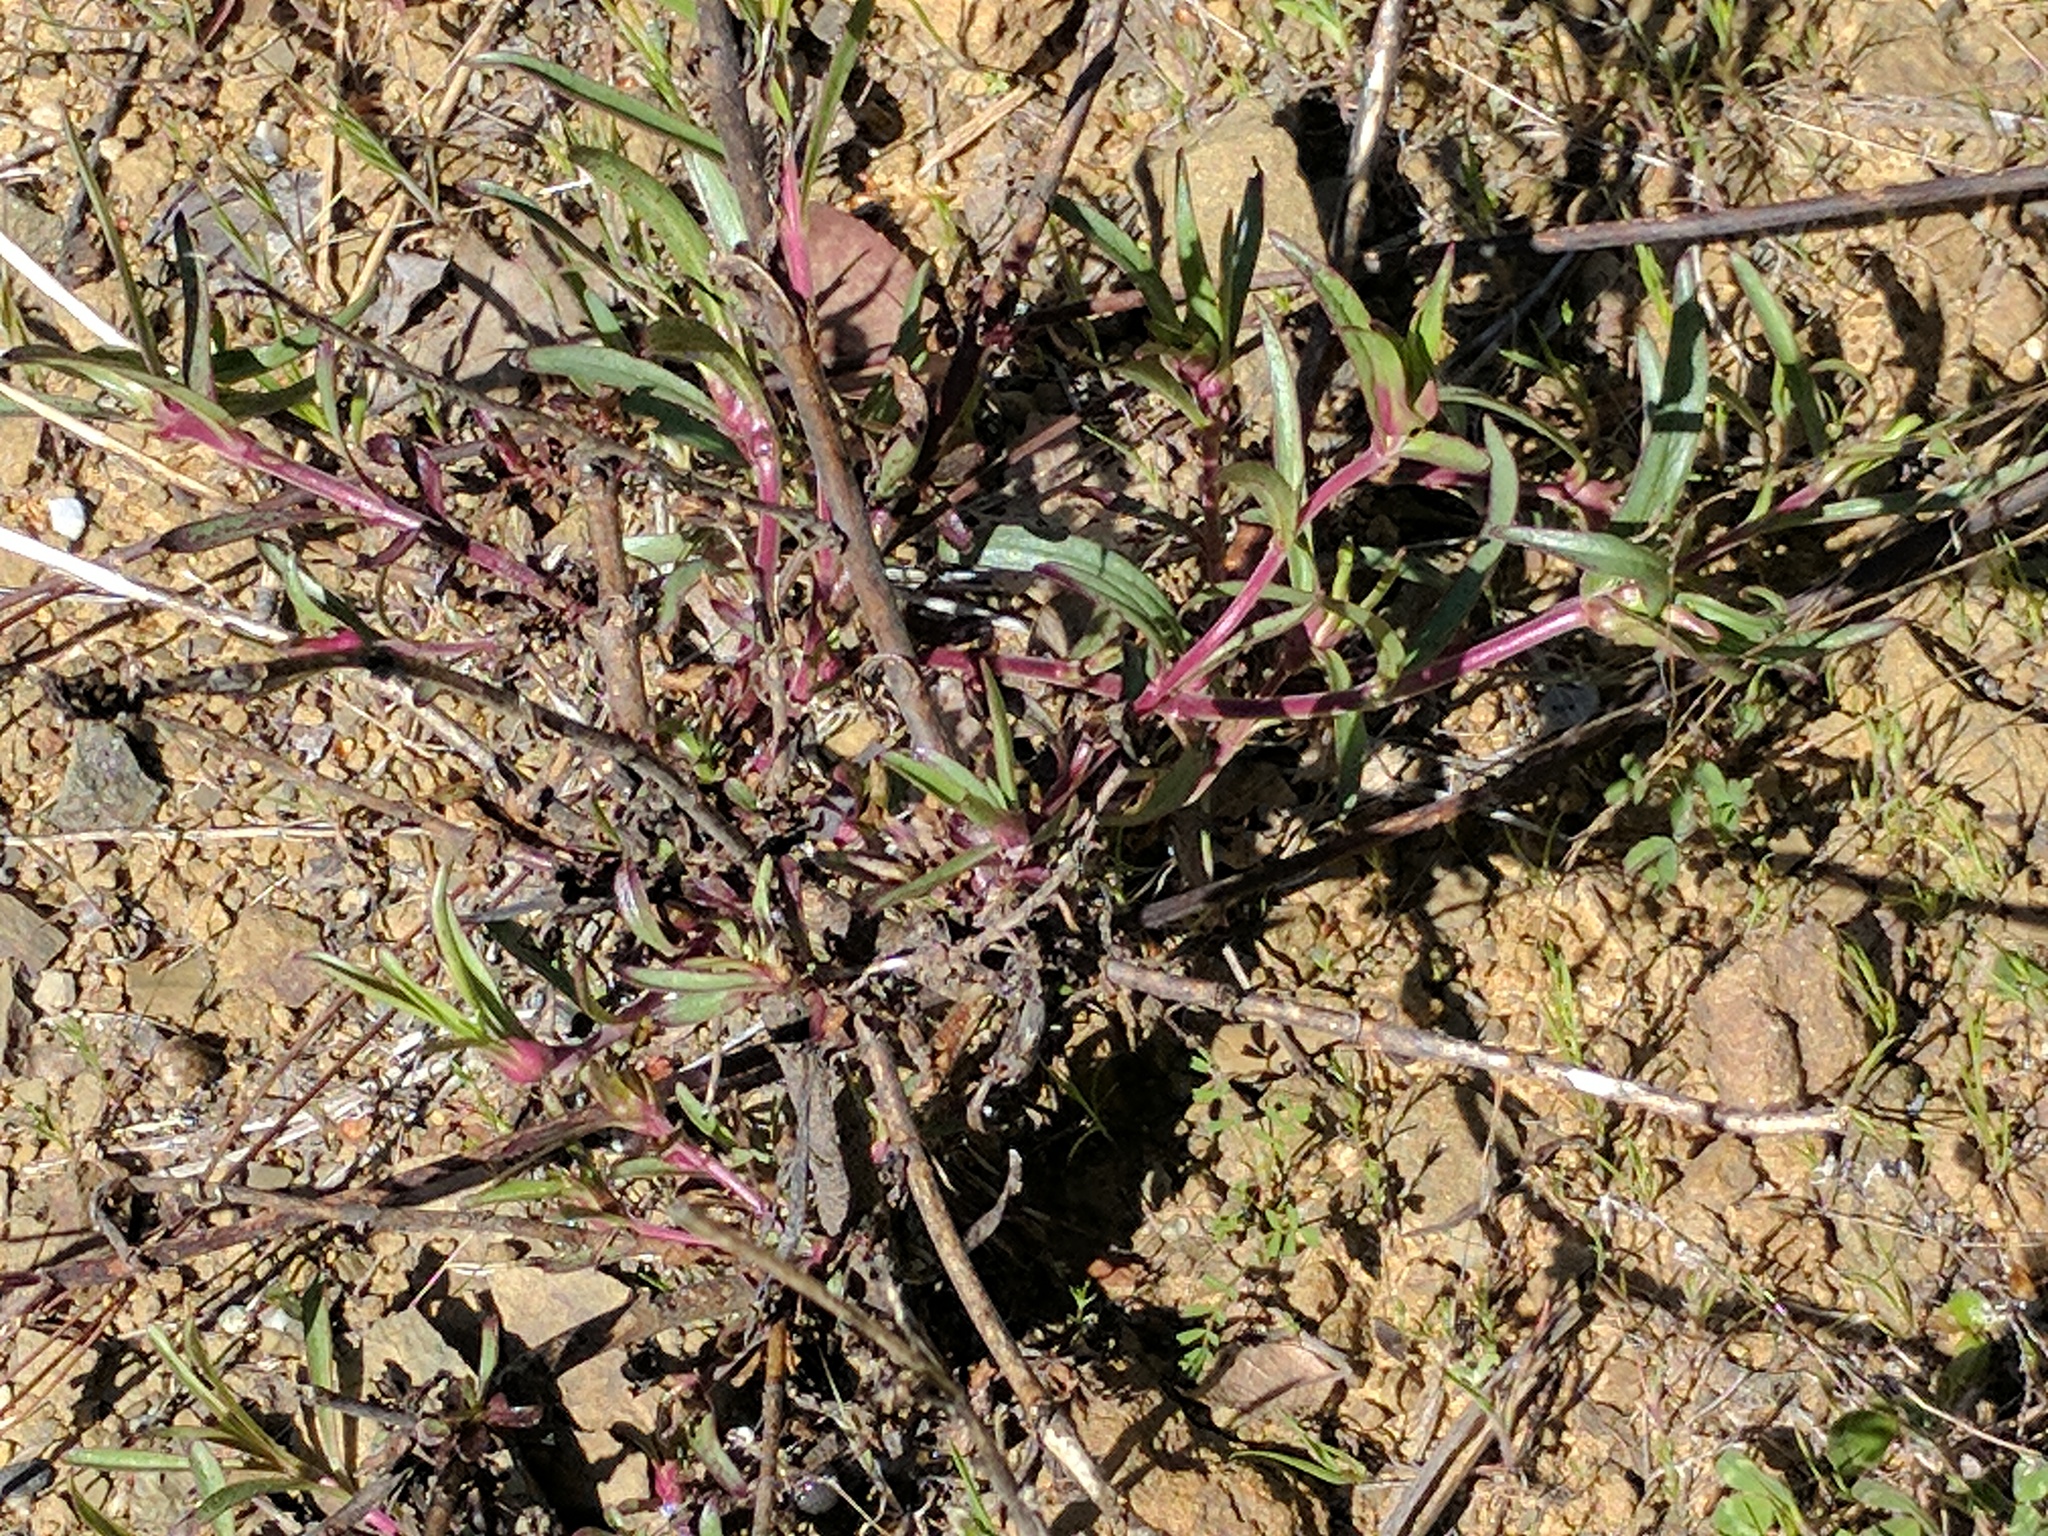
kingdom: Plantae
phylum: Tracheophyta
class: Magnoliopsida
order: Lamiales
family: Plantaginaceae
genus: Penstemon
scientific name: Penstemon heterophyllus
